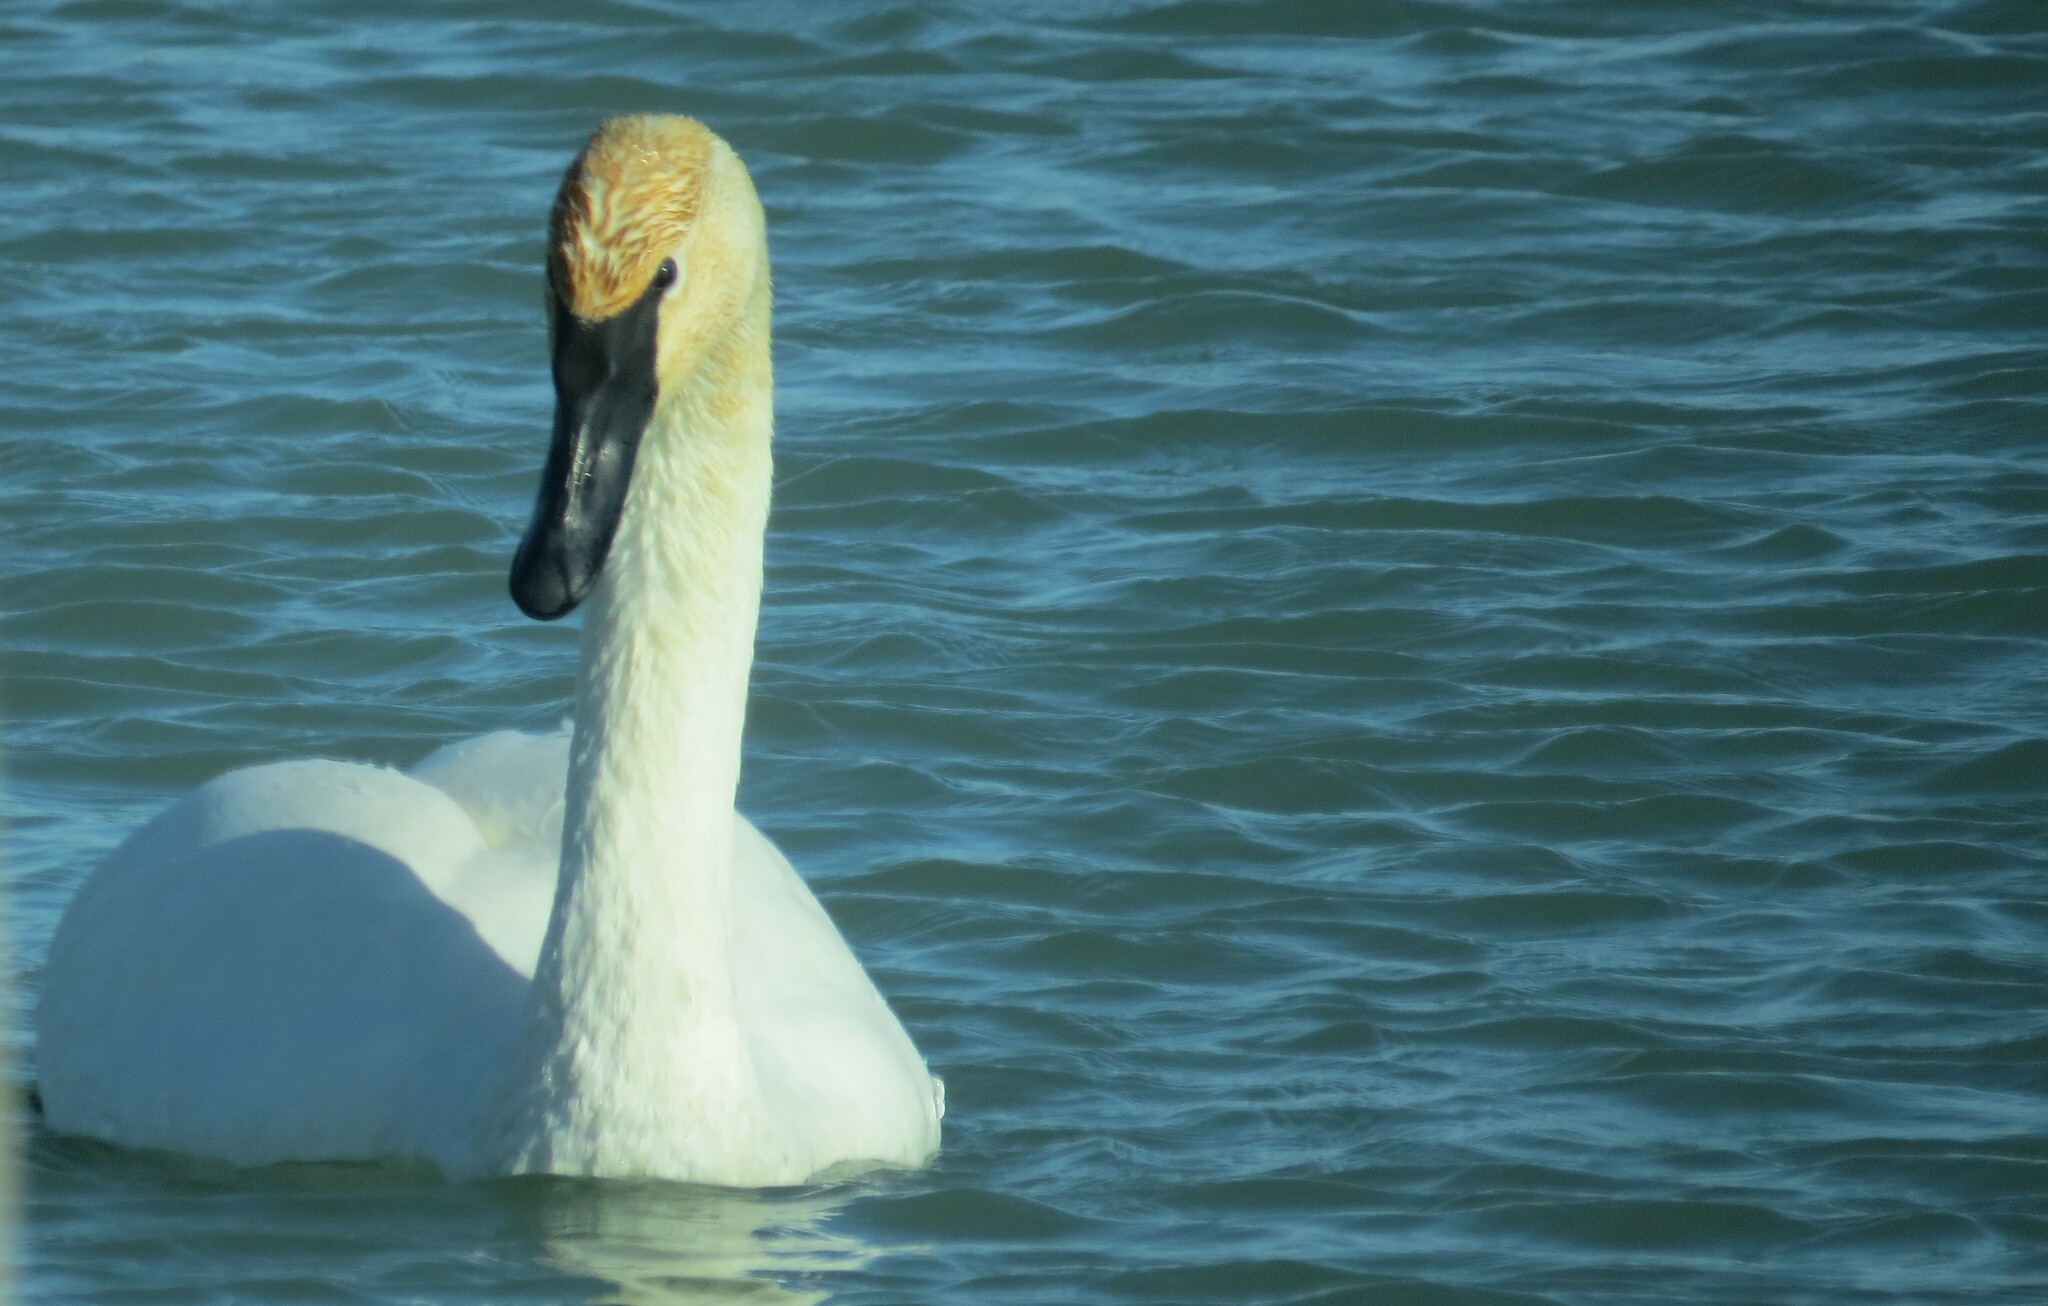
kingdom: Animalia
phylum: Chordata
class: Aves
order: Anseriformes
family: Anatidae
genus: Cygnus
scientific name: Cygnus buccinator
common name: Trumpeter swan
